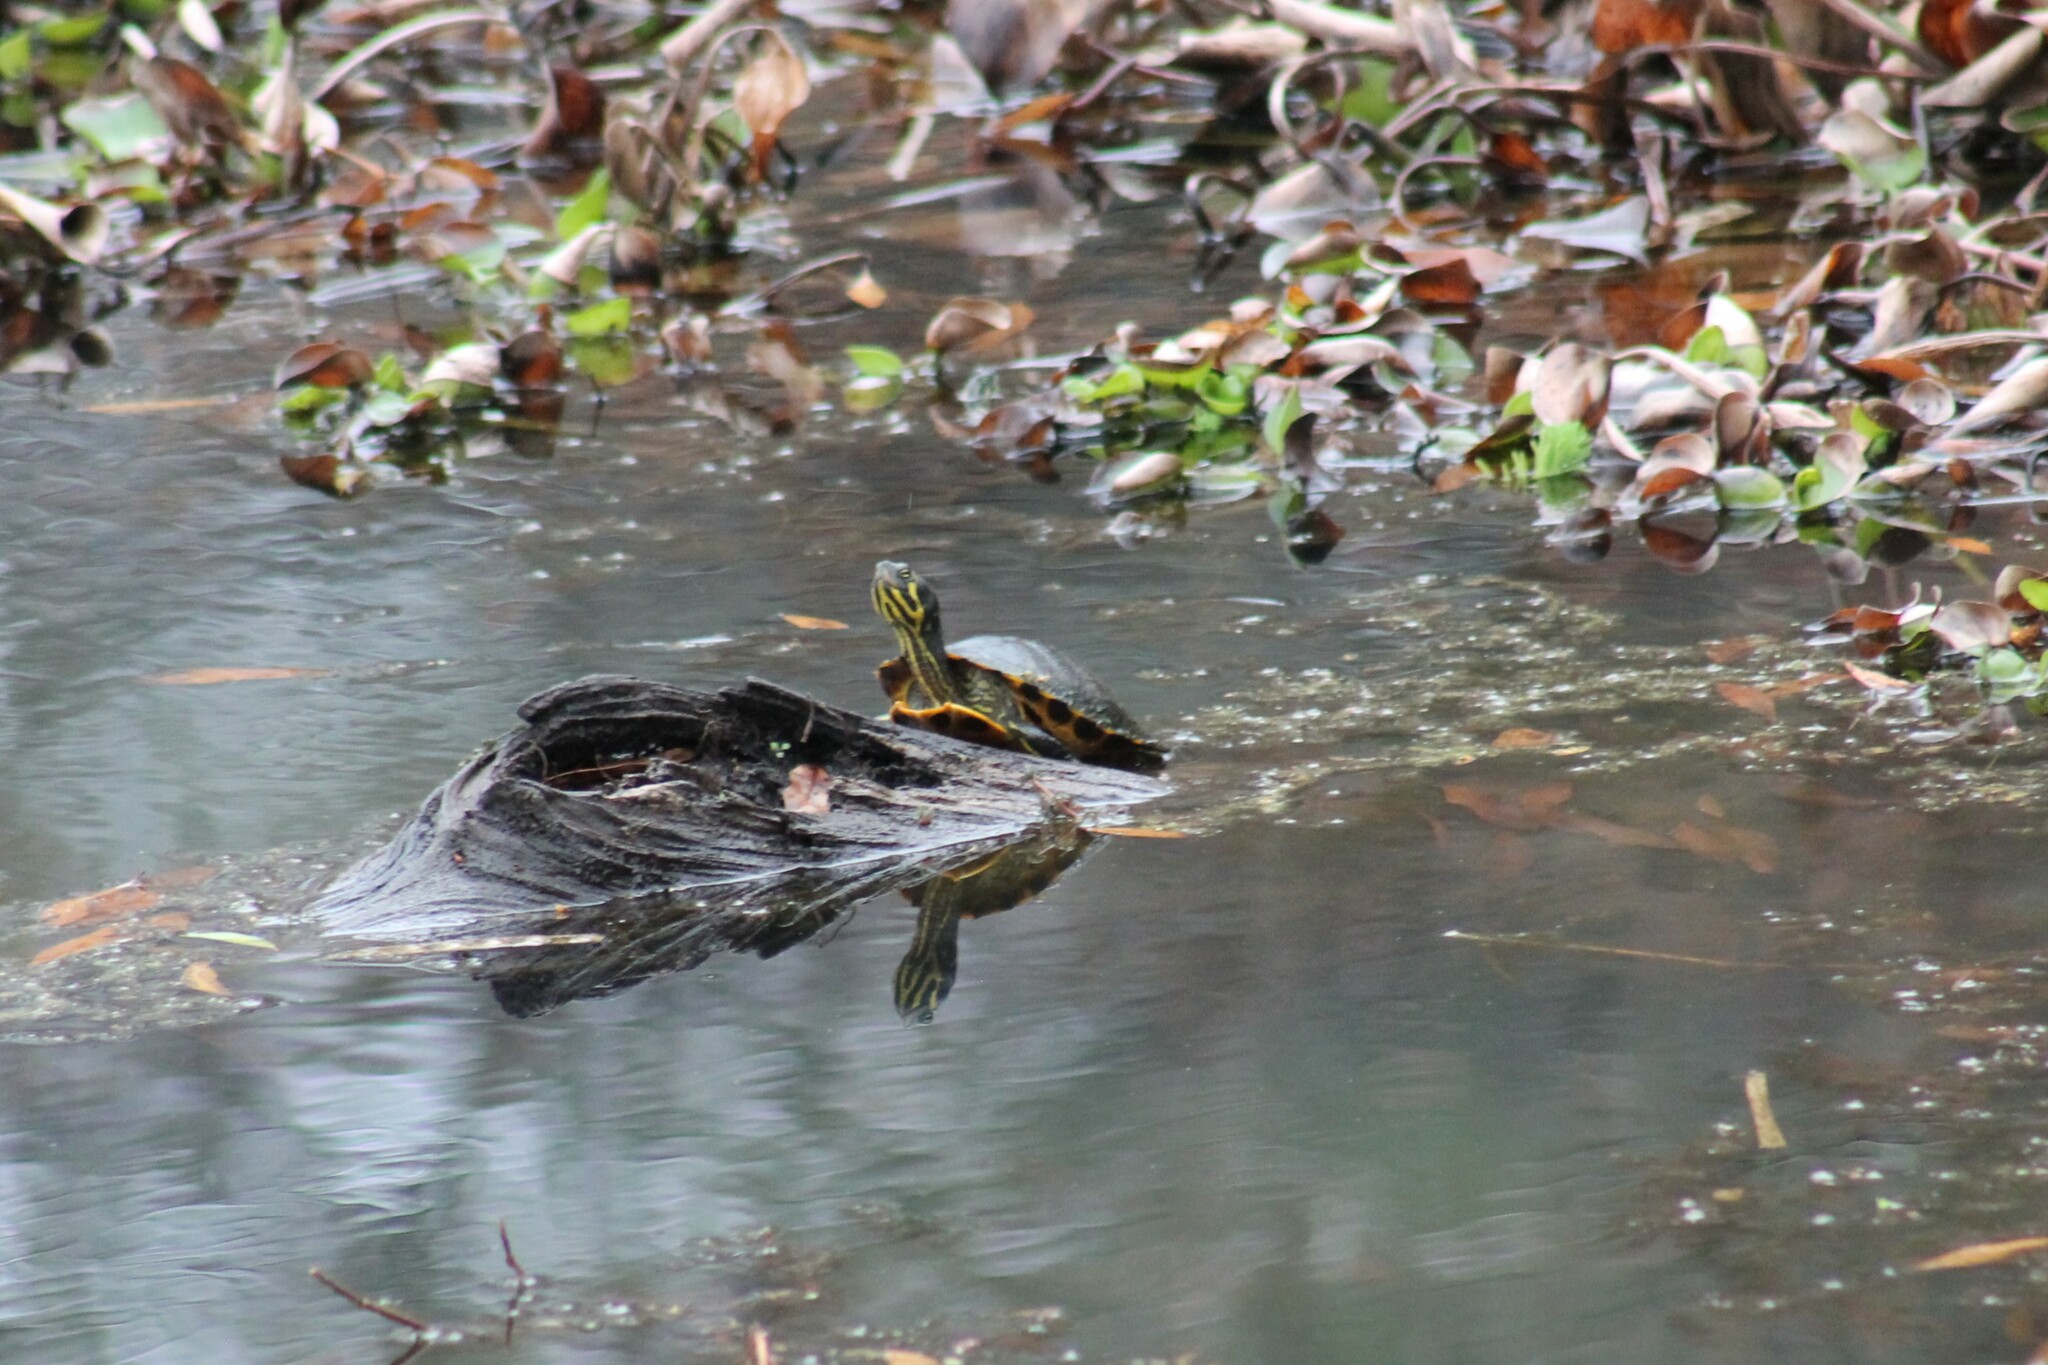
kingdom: Animalia
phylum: Chordata
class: Testudines
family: Emydidae
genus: Trachemys
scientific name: Trachemys scripta
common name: Slider
